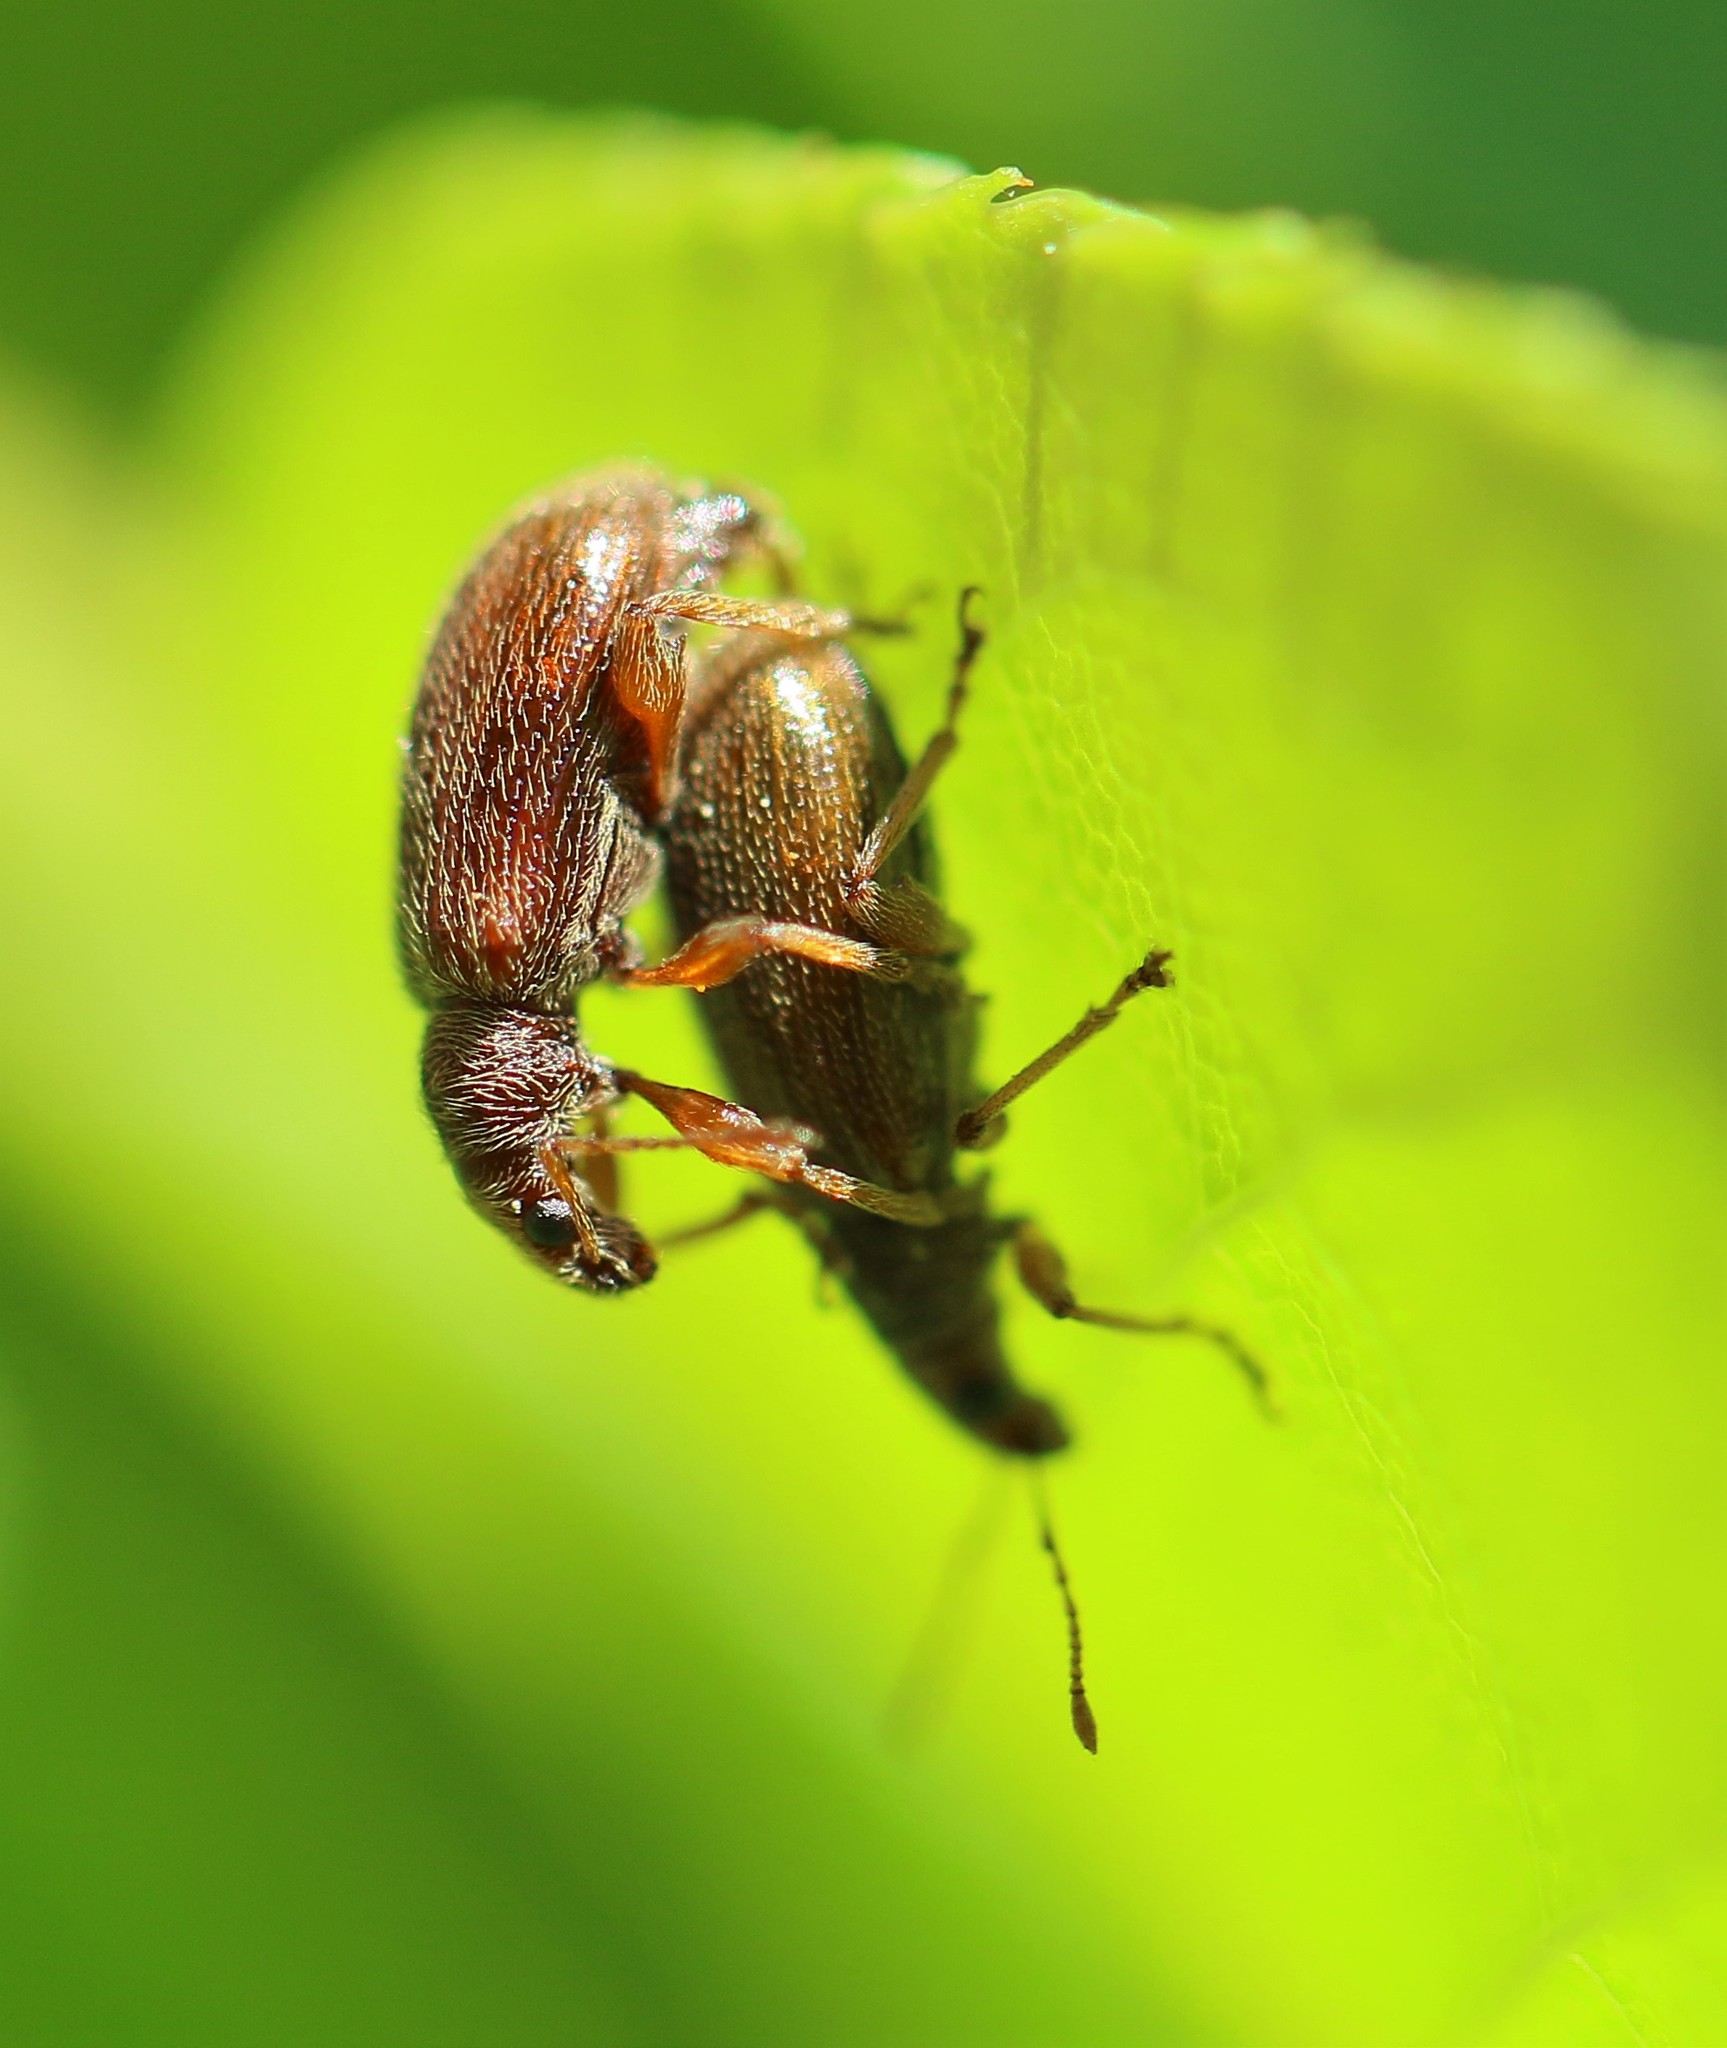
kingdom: Animalia
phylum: Arthropoda
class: Insecta
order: Coleoptera
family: Curculionidae
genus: Phyllobius
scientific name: Phyllobius oblongus
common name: Brown leaf weevil
